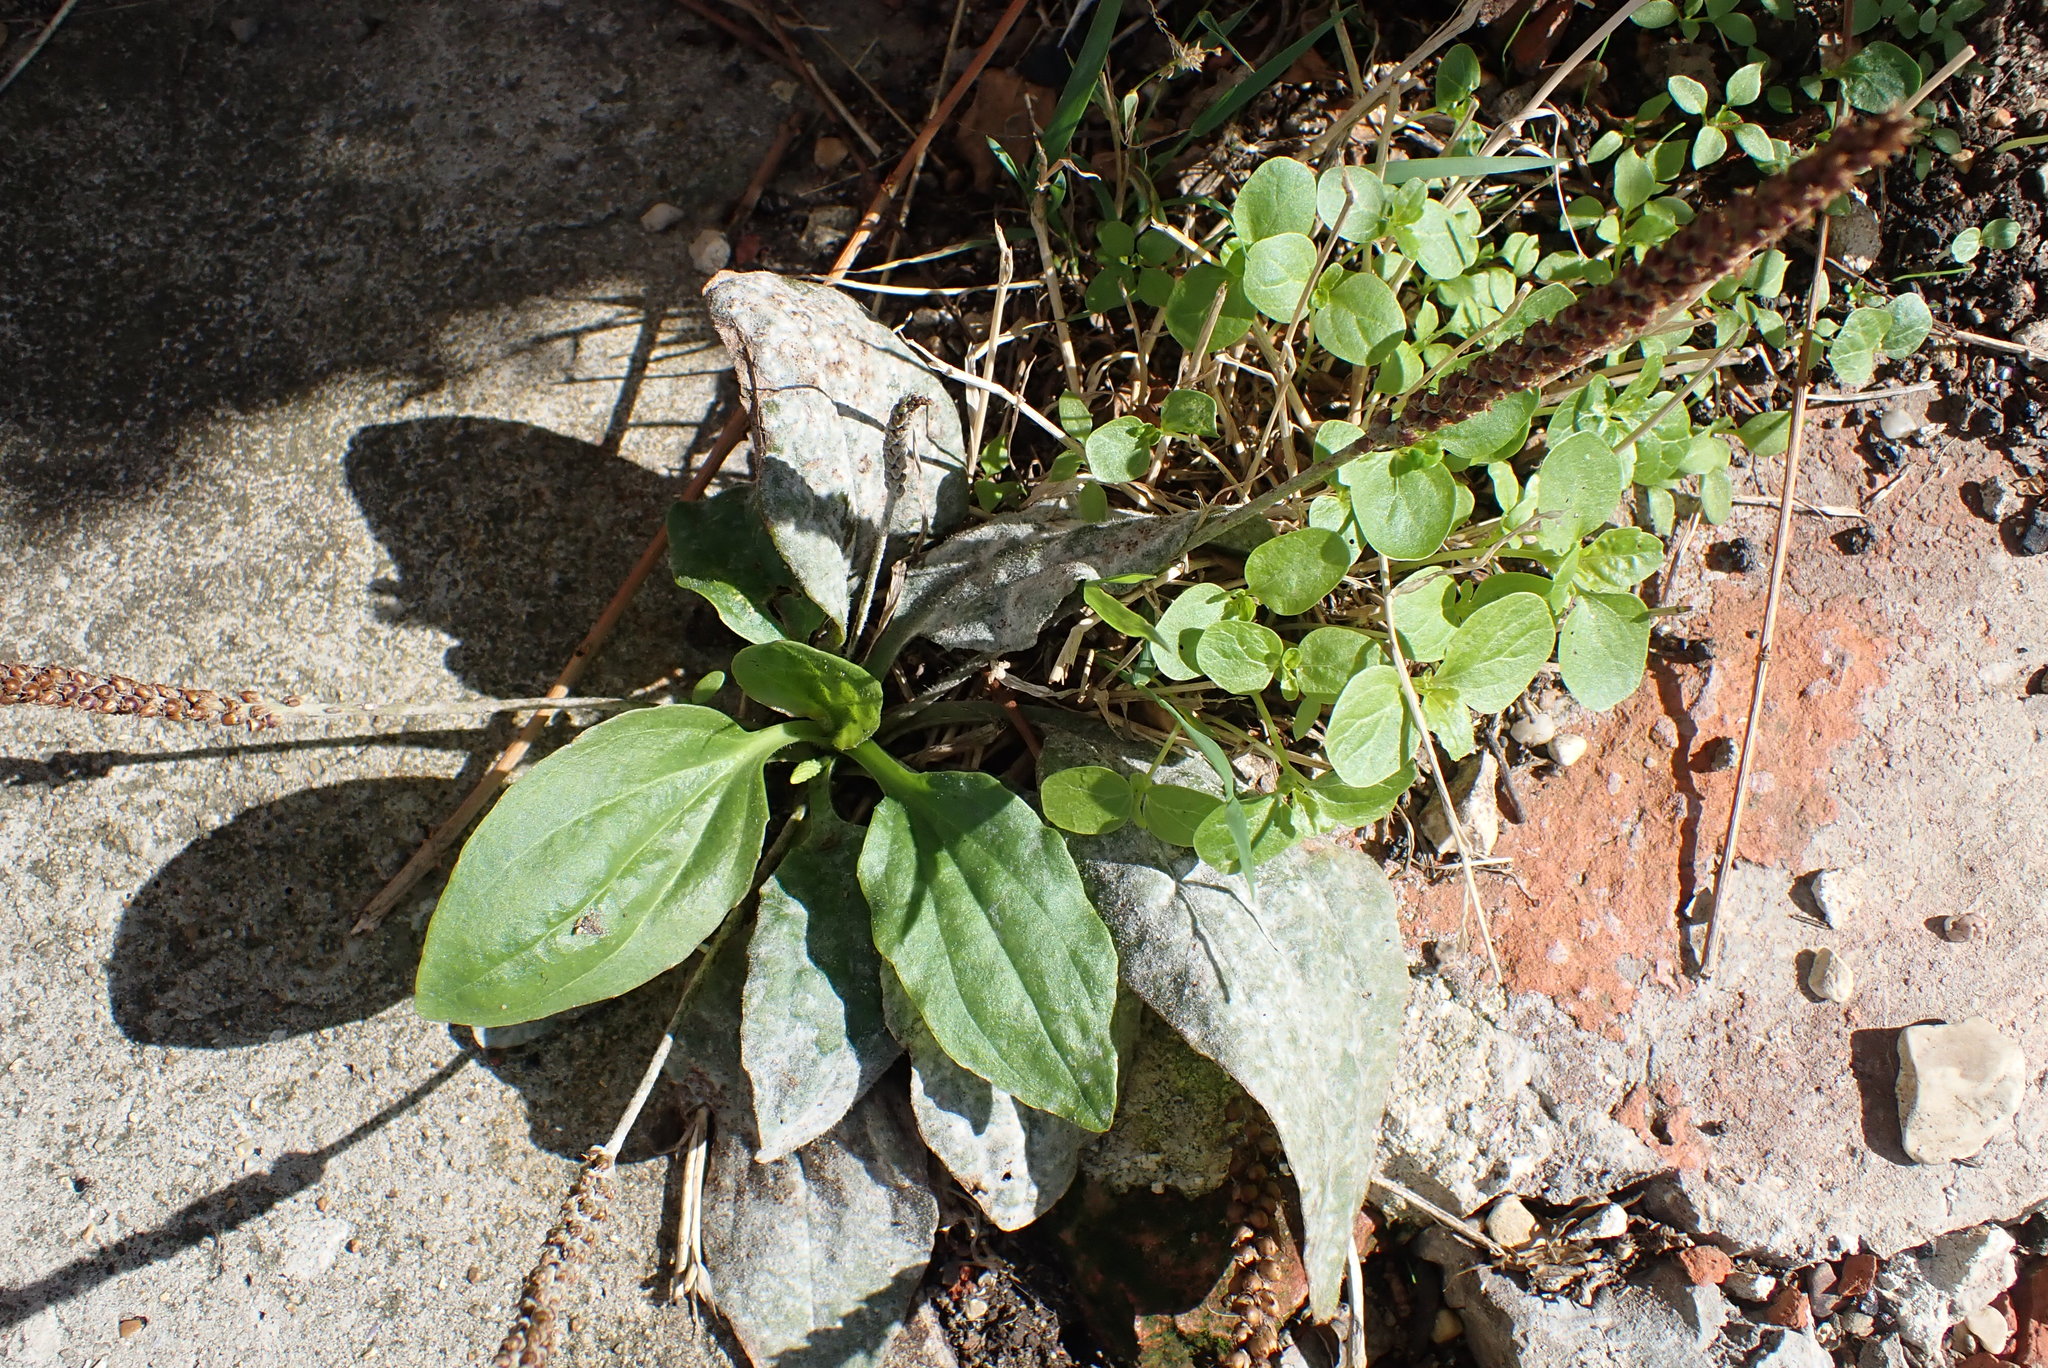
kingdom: Plantae
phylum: Tracheophyta
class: Magnoliopsida
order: Lamiales
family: Plantaginaceae
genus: Plantago
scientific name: Plantago major
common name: Common plantain
